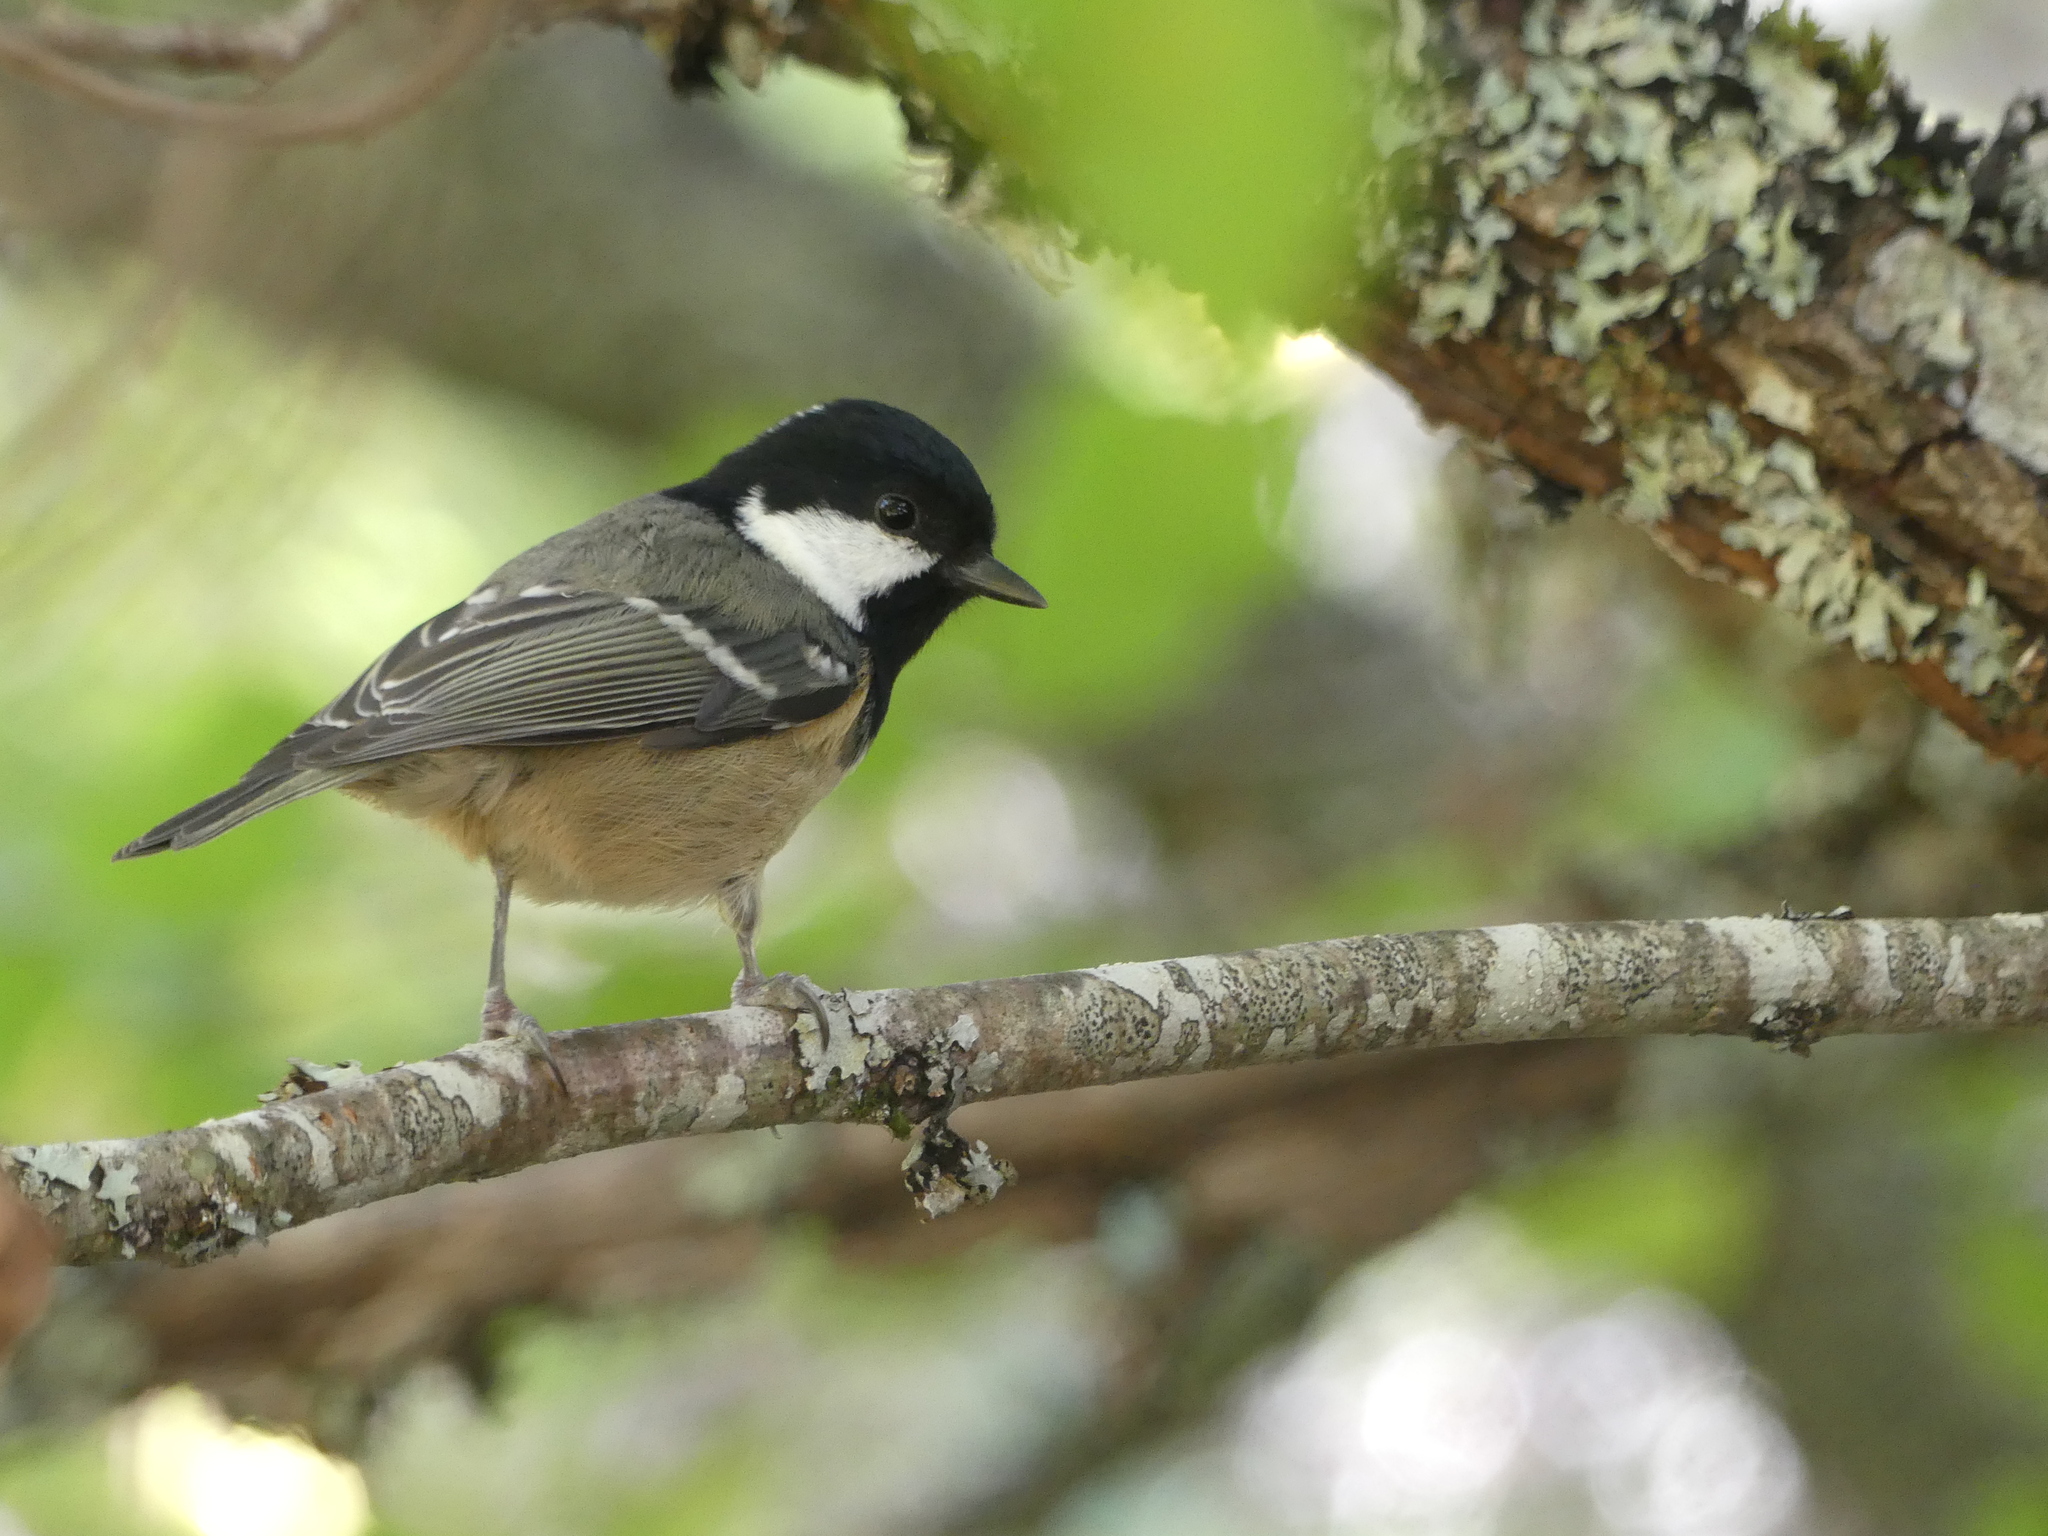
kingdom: Animalia
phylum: Chordata
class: Aves
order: Passeriformes
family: Paridae
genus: Periparus
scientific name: Periparus ater
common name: Coal tit
